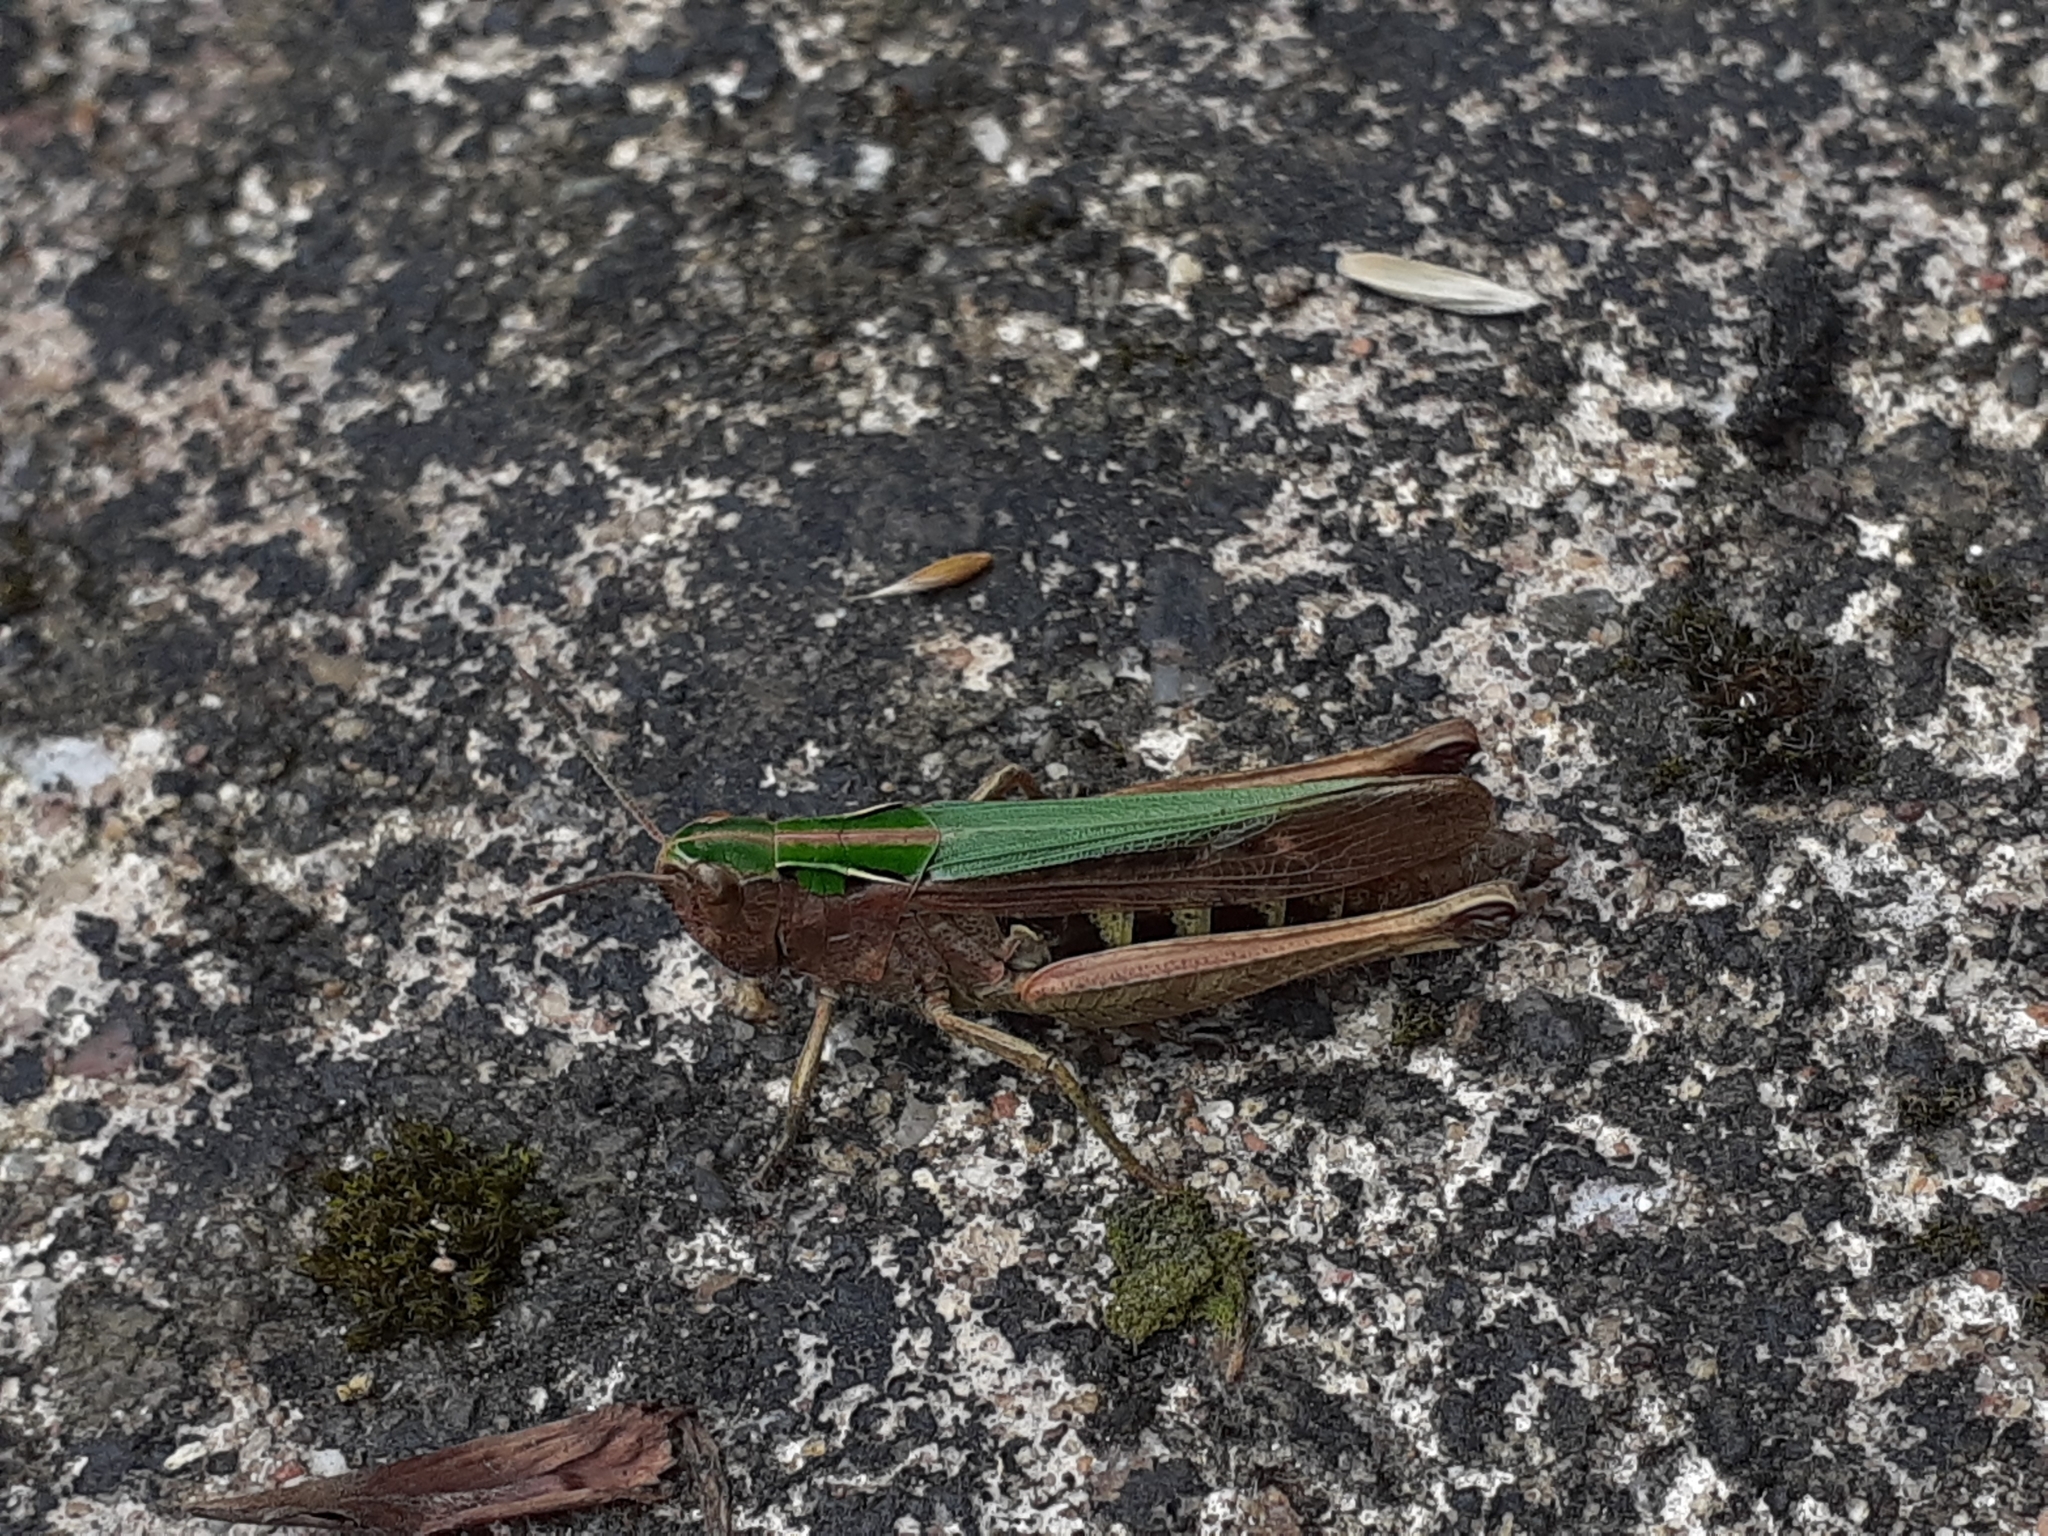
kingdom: Animalia
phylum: Arthropoda
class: Insecta
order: Orthoptera
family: Acrididae
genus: Omocestus
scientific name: Omocestus viridulus
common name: Common green grasshopper
